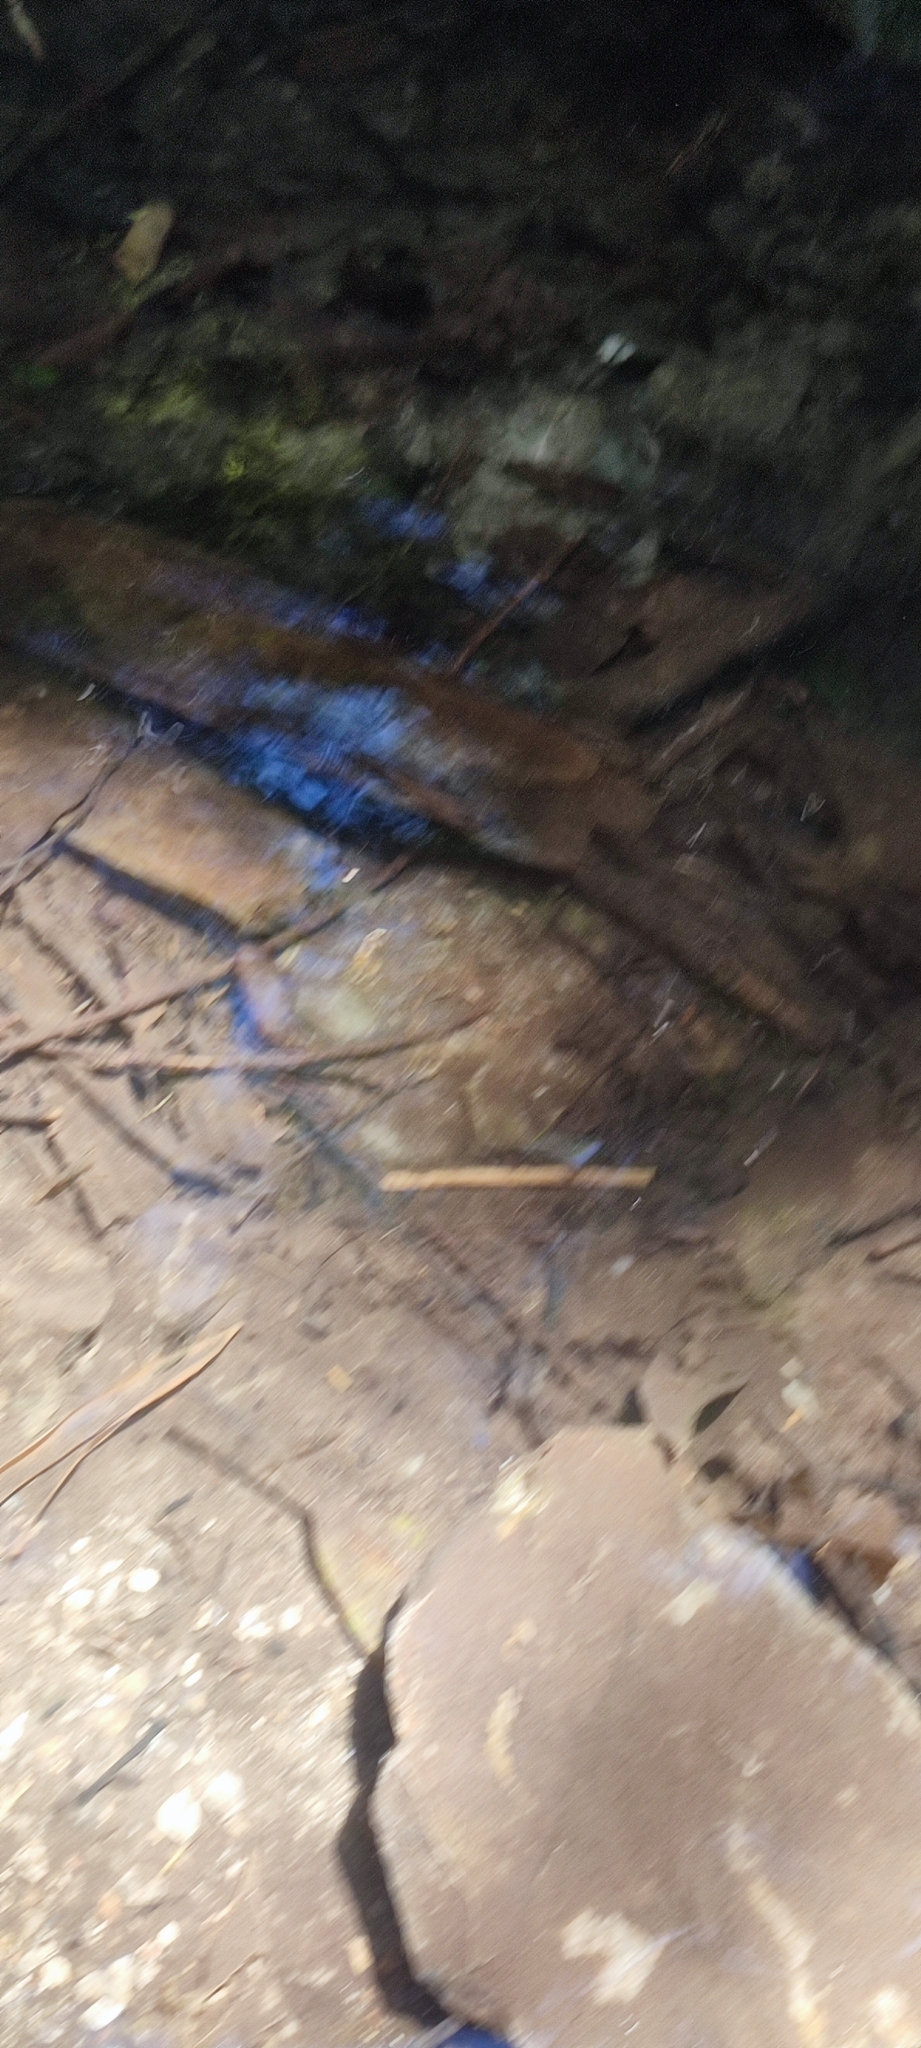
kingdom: Animalia
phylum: Arthropoda
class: Malacostraca
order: Decapoda
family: Palaemonidae
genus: Macrobrachium
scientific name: Macrobrachium asperulum
